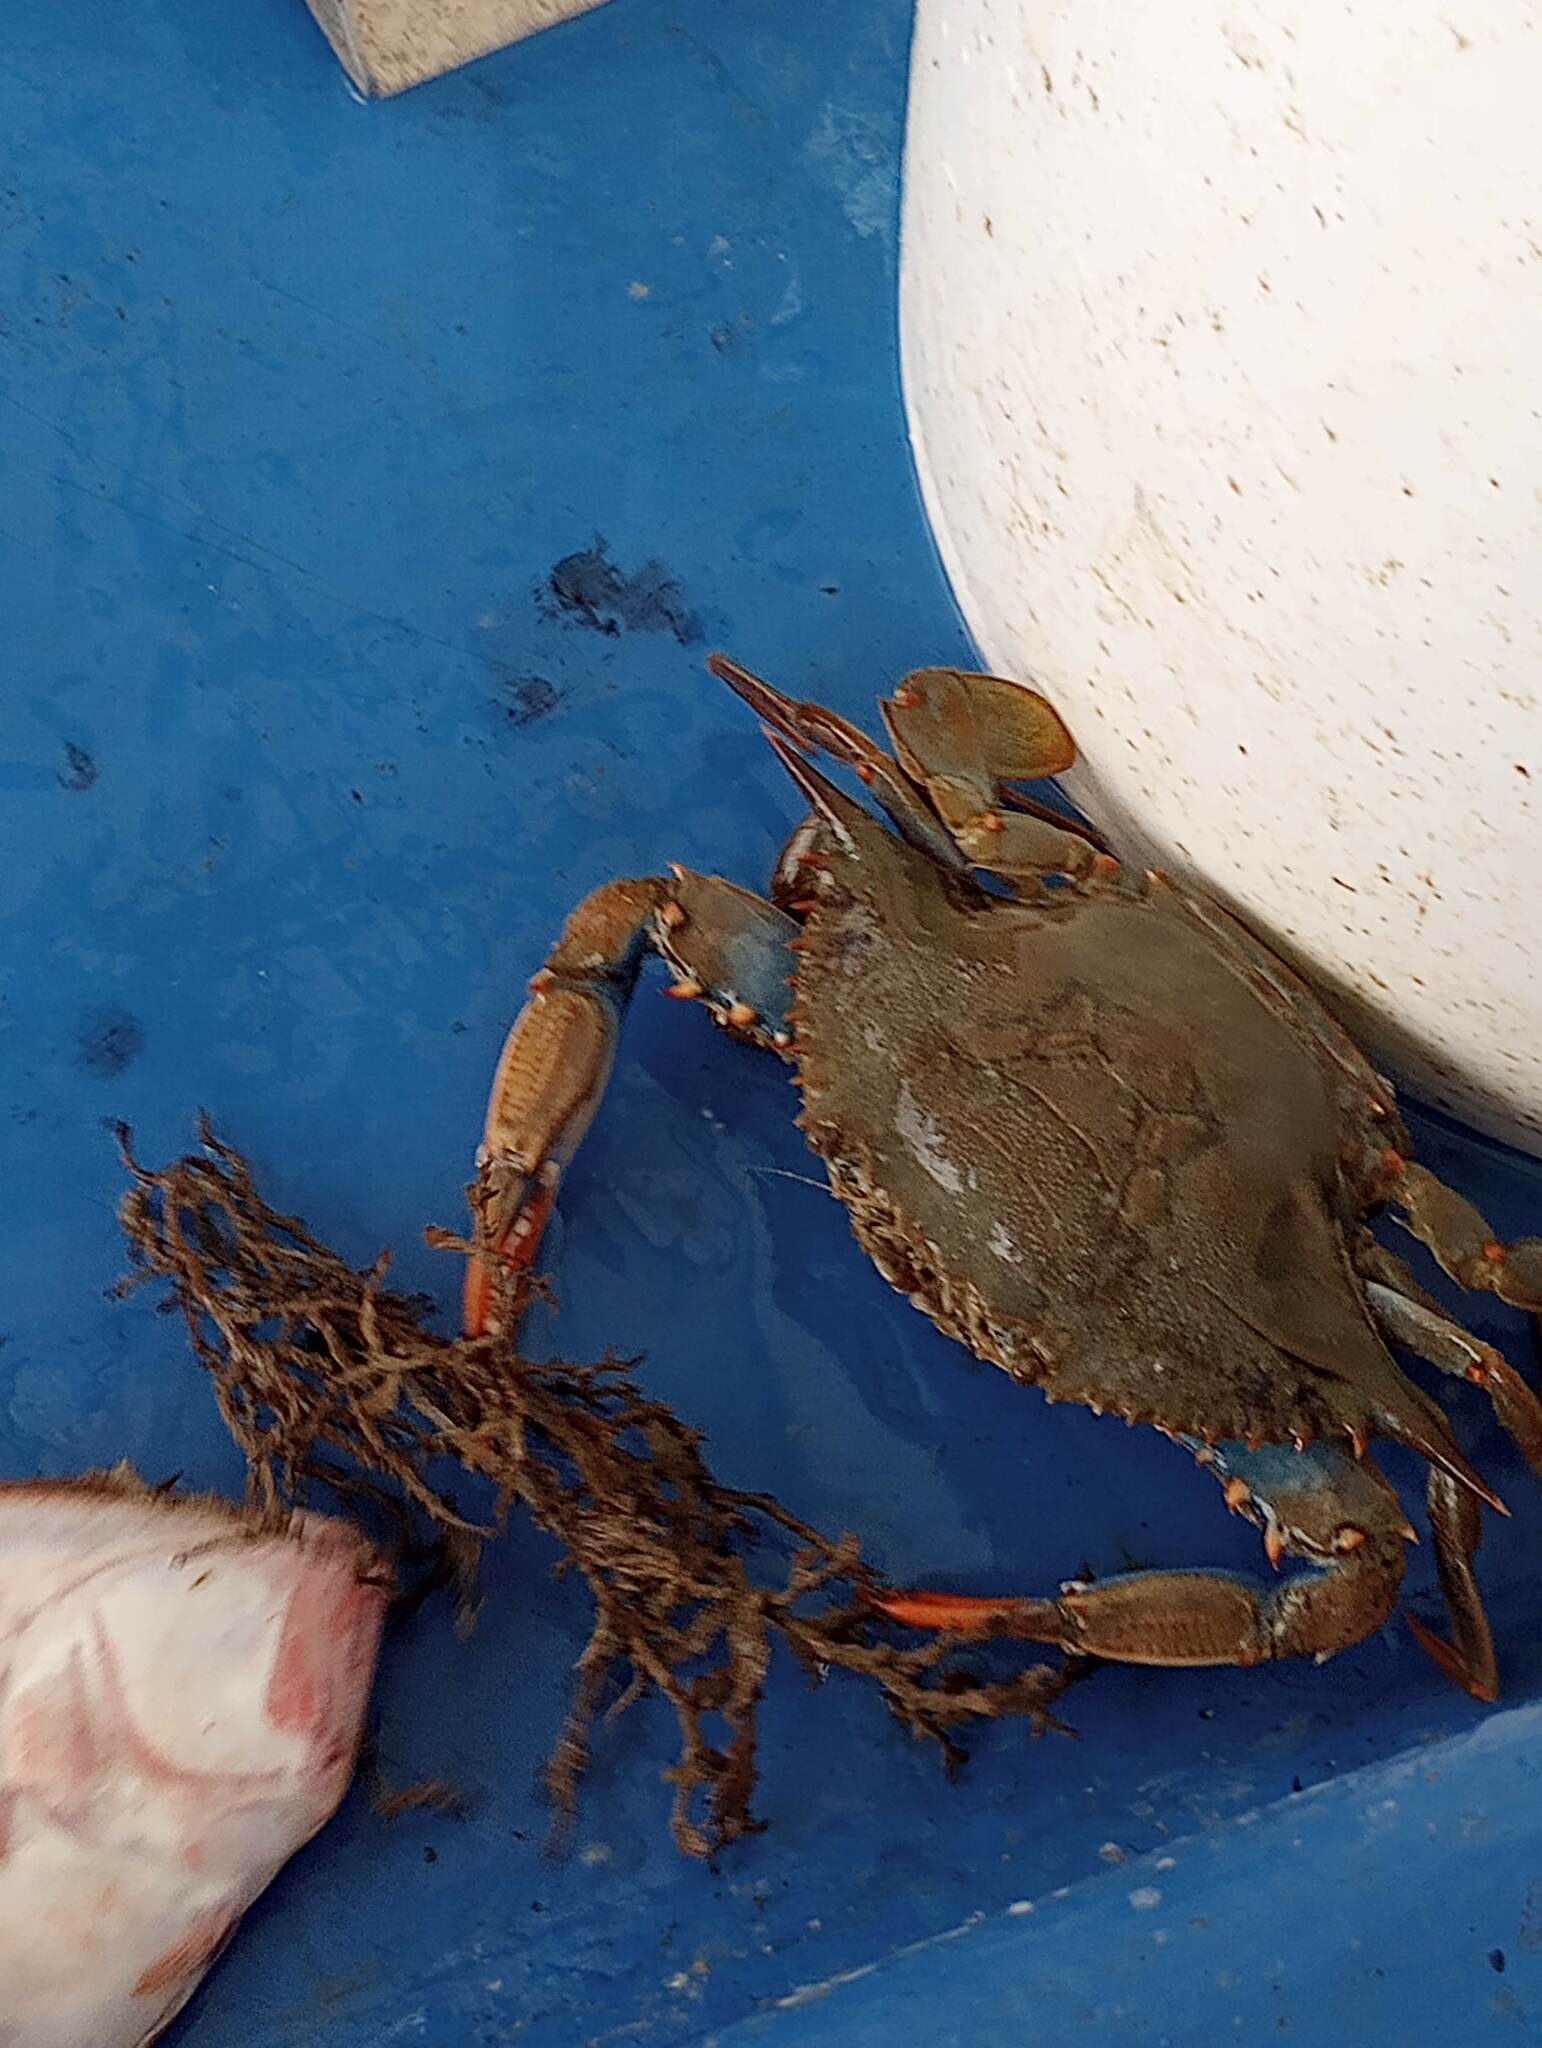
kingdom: Animalia
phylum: Arthropoda
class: Malacostraca
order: Decapoda
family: Portunidae
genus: Callinectes
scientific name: Callinectes sapidus
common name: Blue crab
